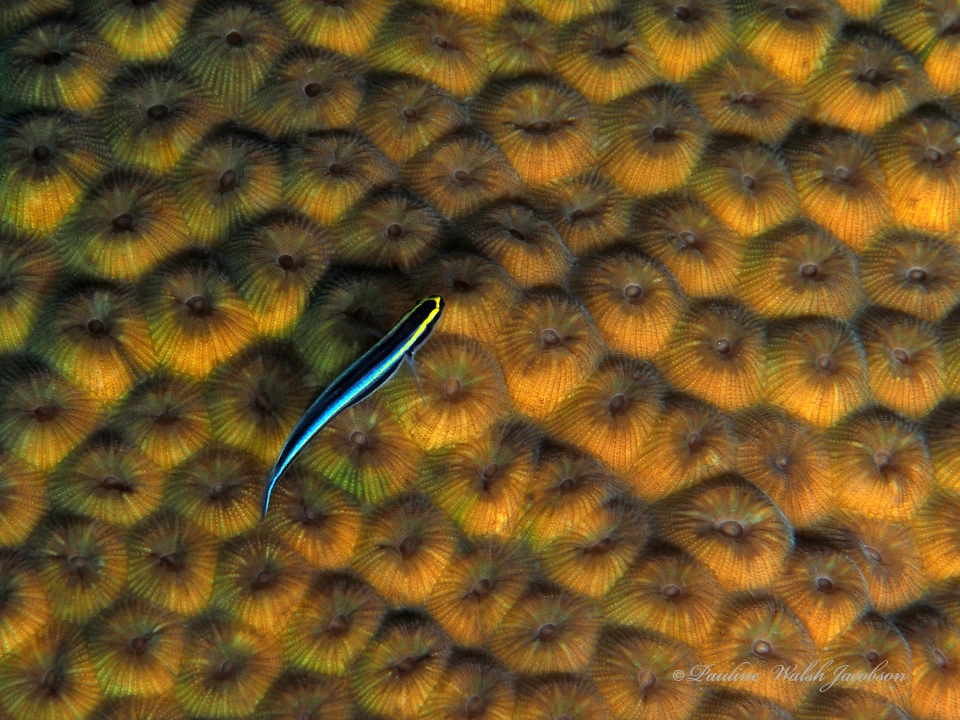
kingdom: Animalia
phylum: Cnidaria
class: Anthozoa
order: Scleractinia
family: Montastraeidae
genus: Montastraea
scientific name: Montastraea cavernosa
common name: Great star coral
